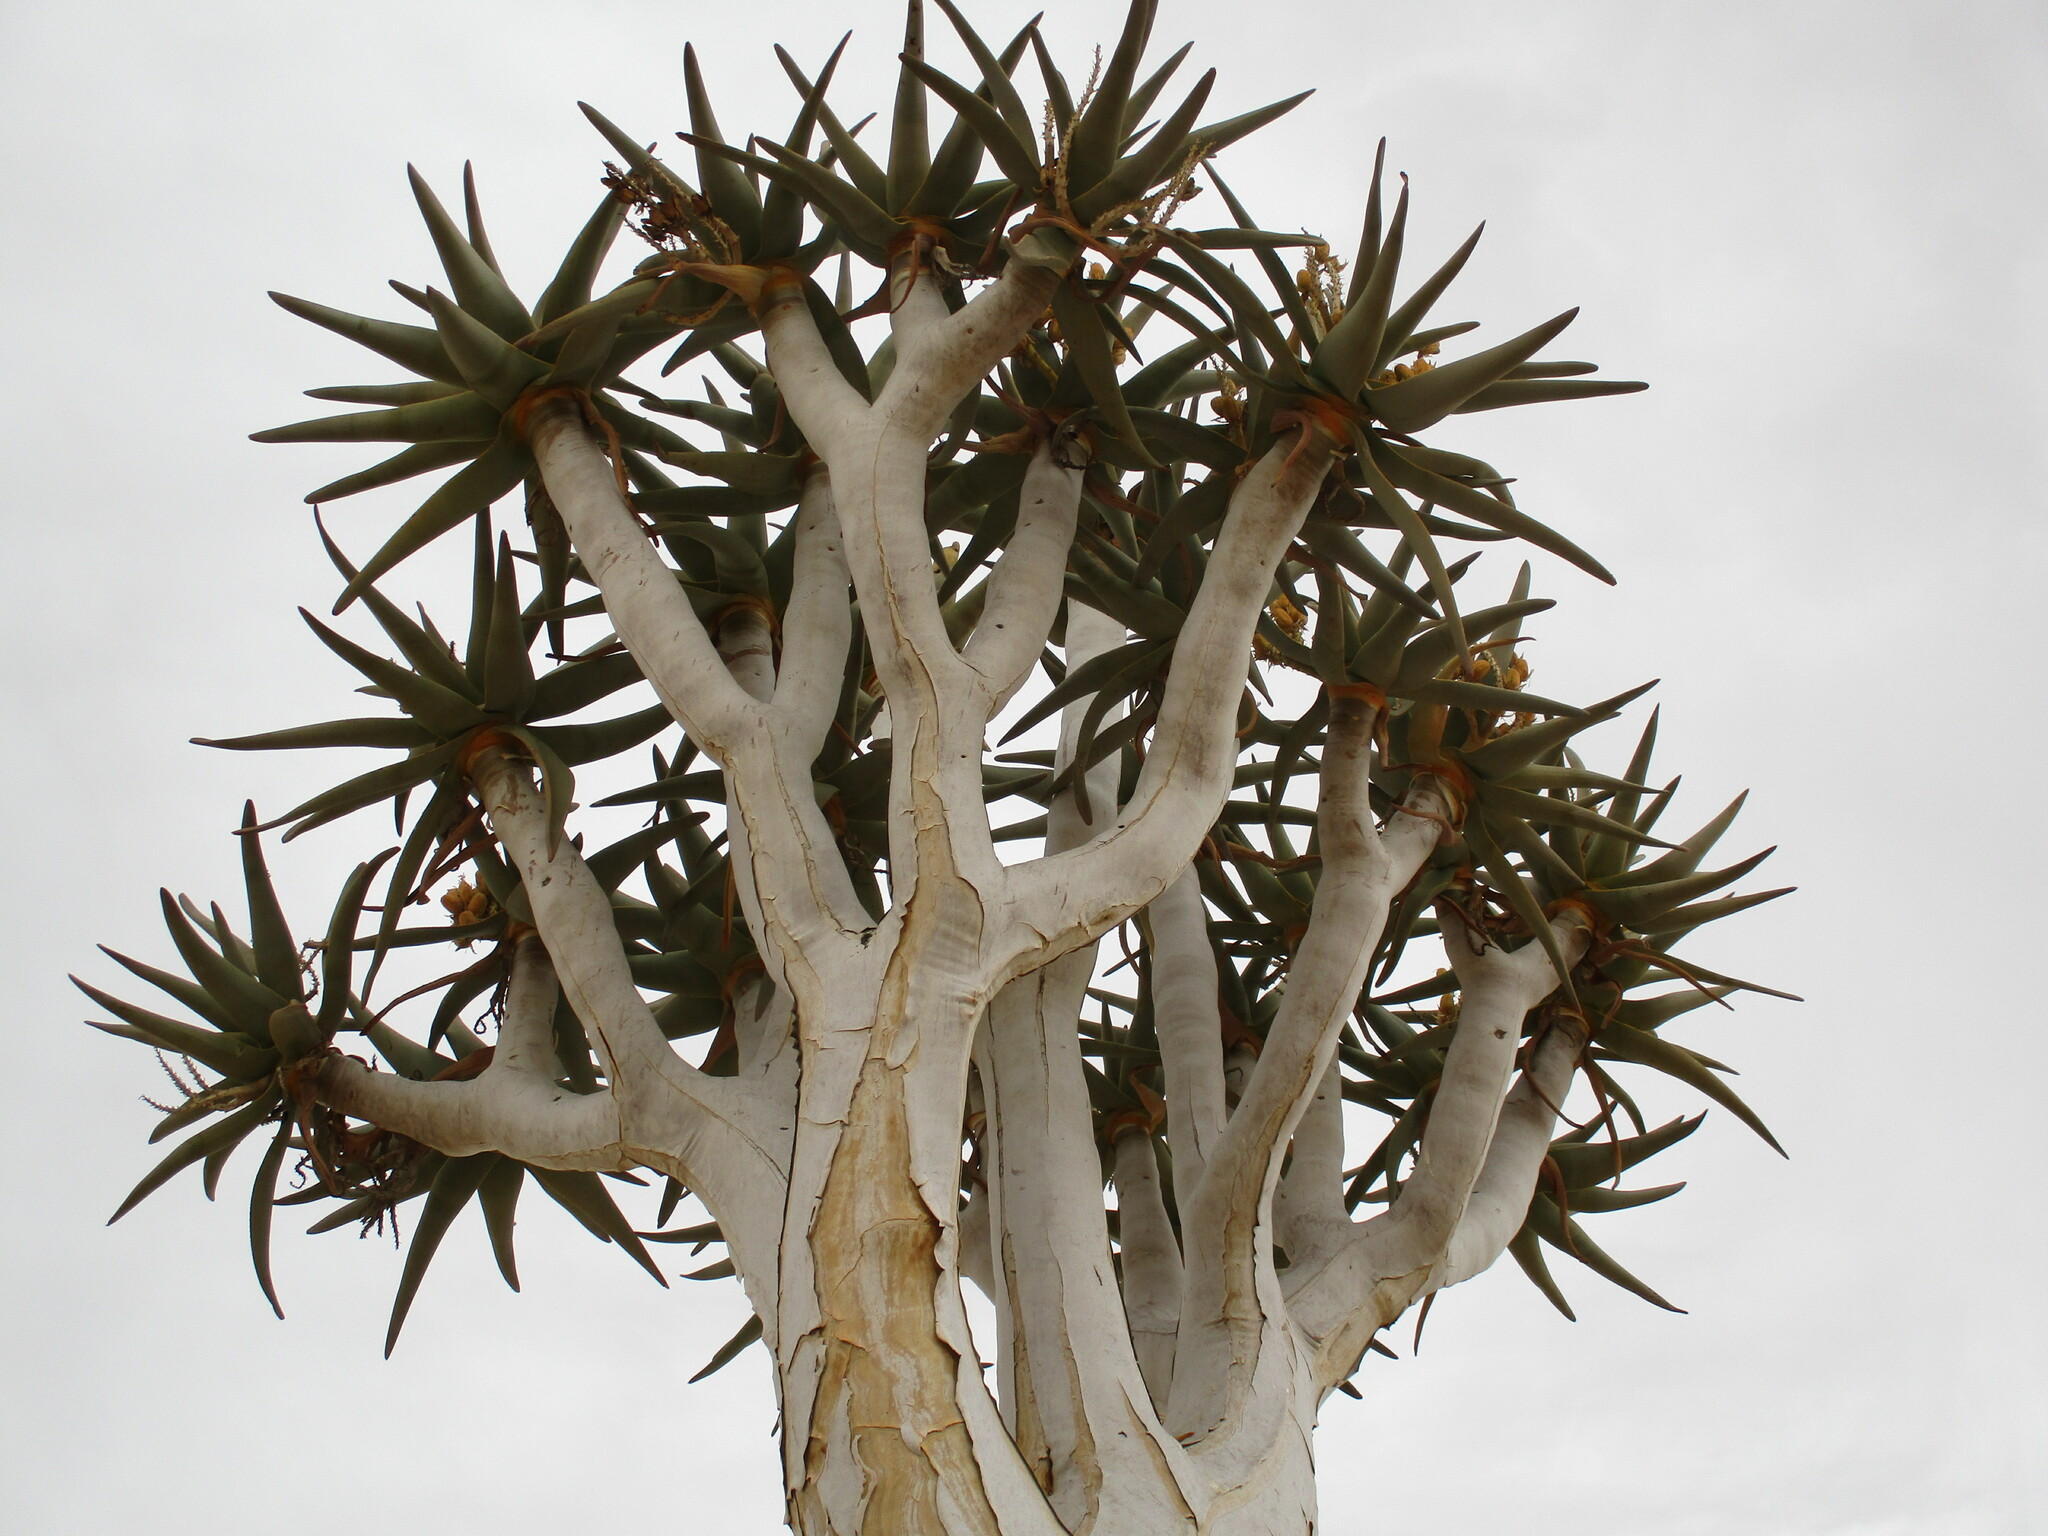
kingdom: Plantae
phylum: Tracheophyta
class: Liliopsida
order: Asparagales
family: Asphodelaceae
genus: Aloidendron
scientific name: Aloidendron dichotomum
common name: Quiver tree
